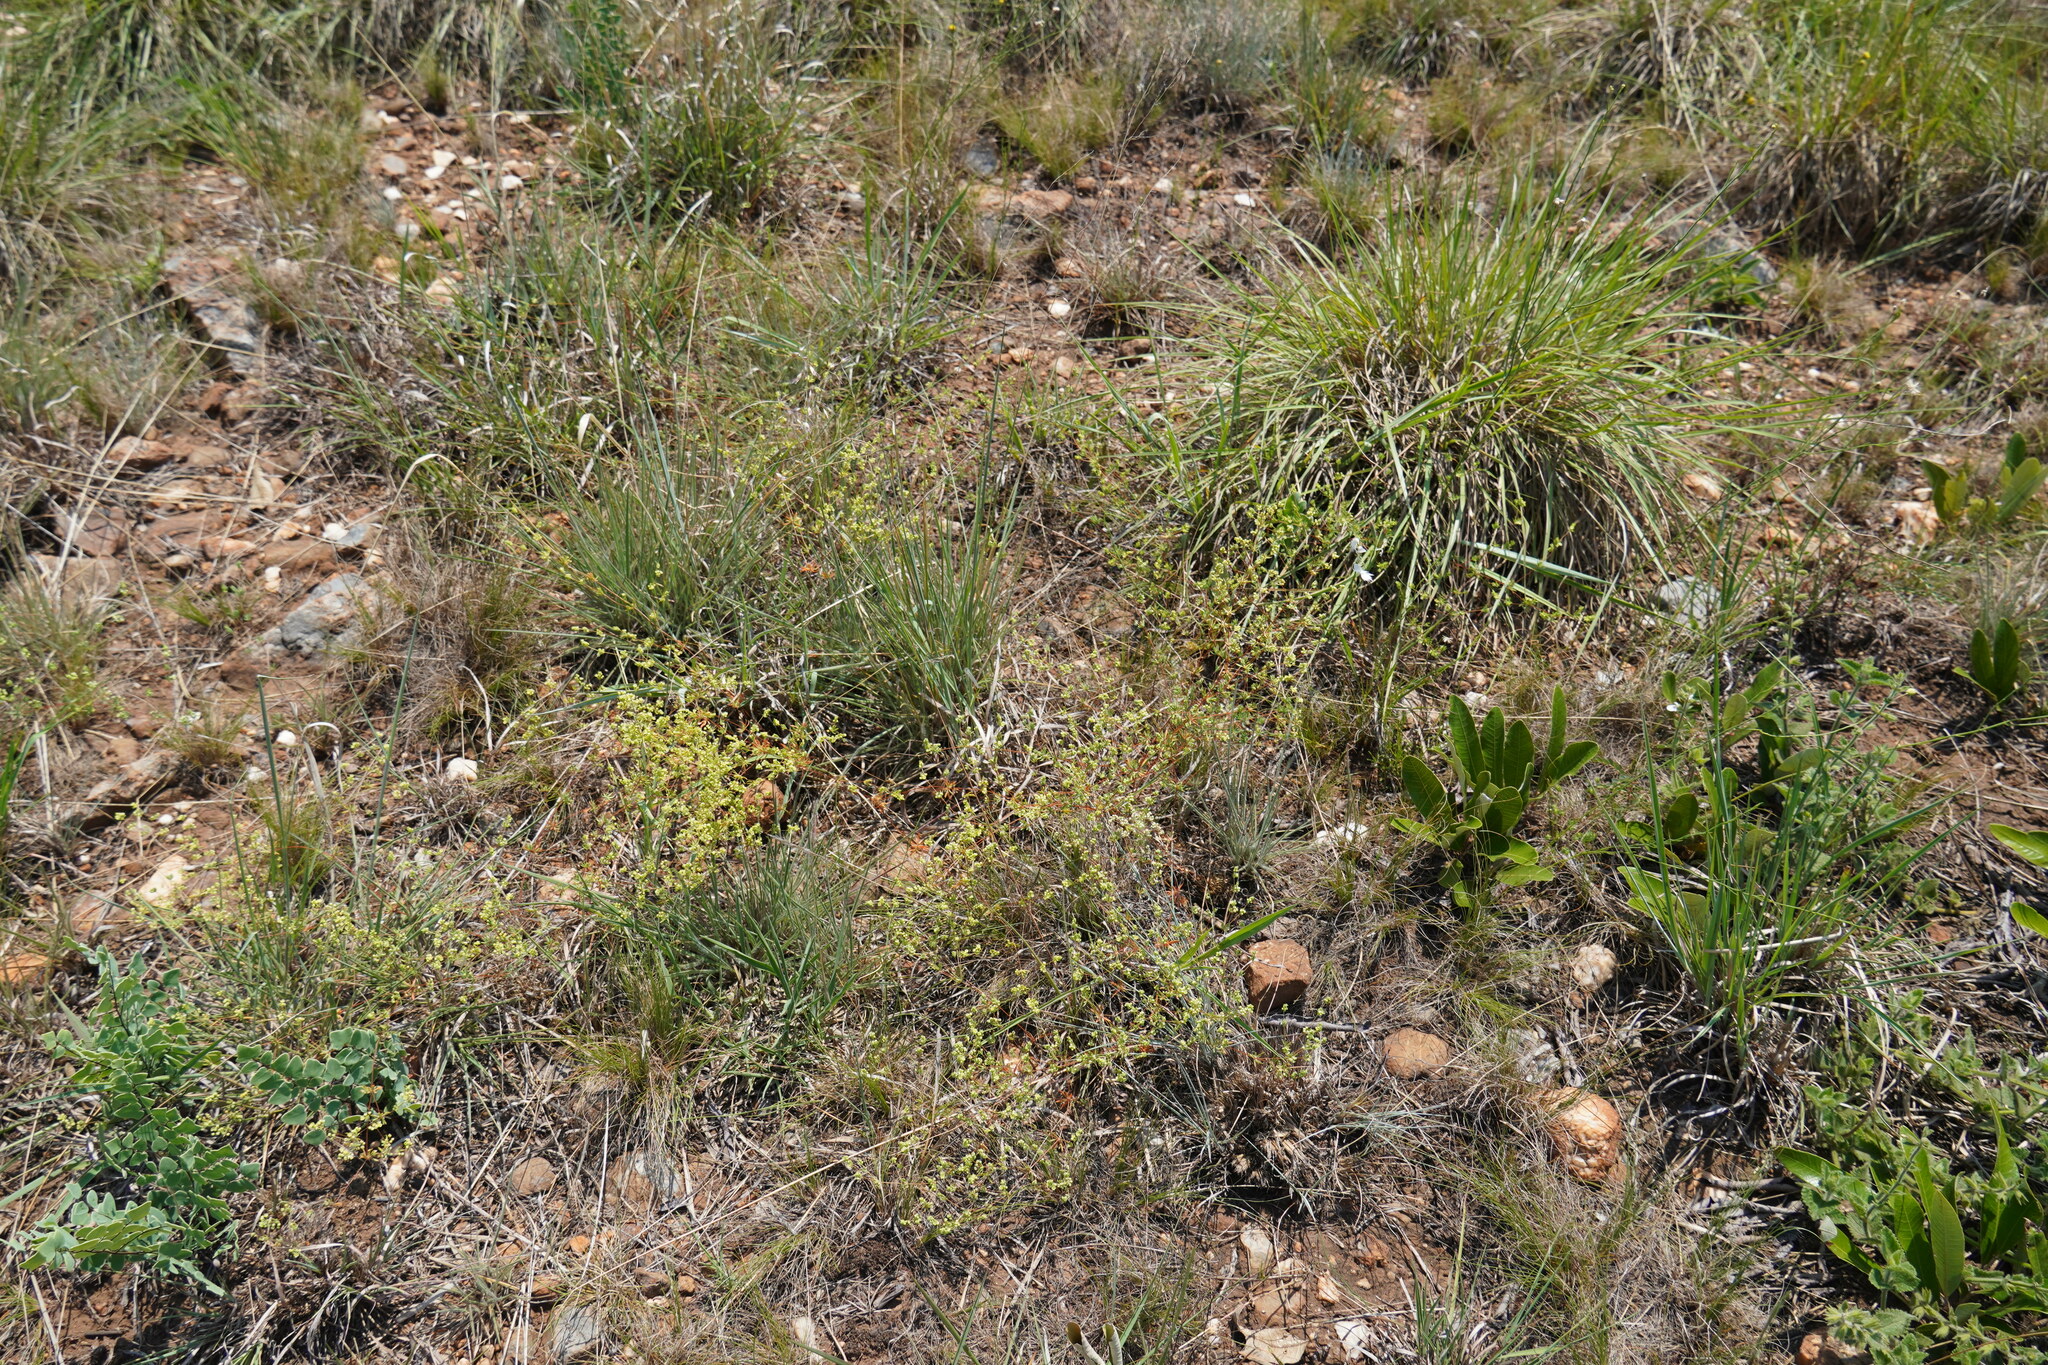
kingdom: Plantae
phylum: Tracheophyta
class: Magnoliopsida
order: Caryophyllales
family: Molluginaceae
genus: Psammotropha
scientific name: Psammotropha myriantha
